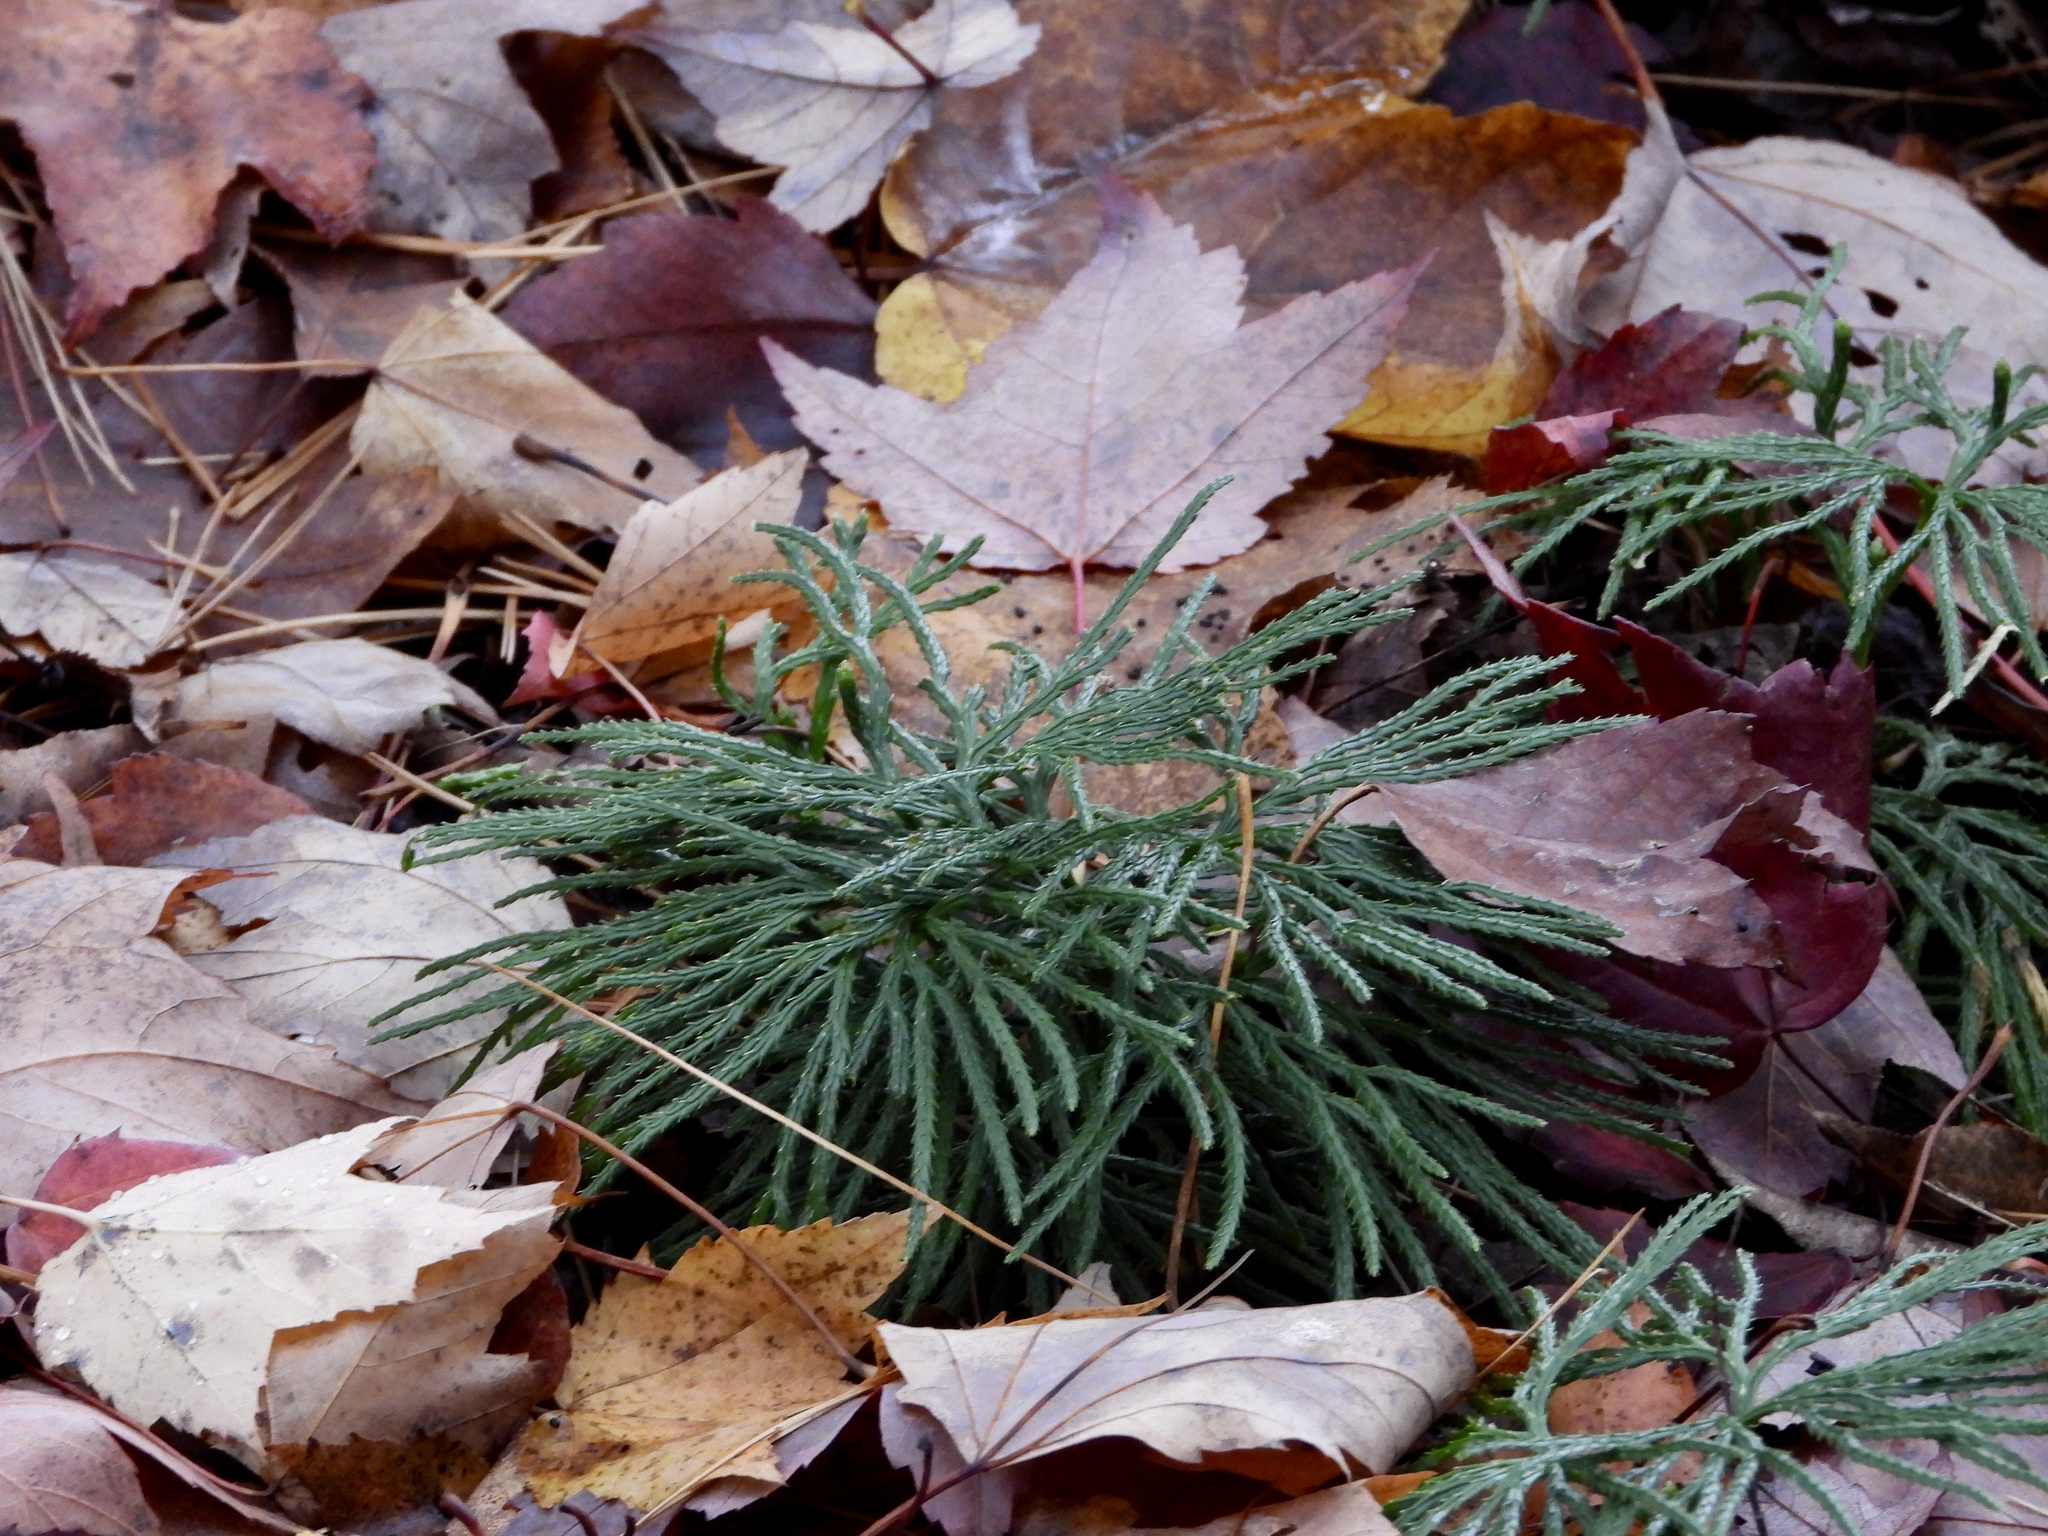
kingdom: Plantae
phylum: Tracheophyta
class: Lycopodiopsida
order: Lycopodiales
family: Lycopodiaceae
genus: Diphasiastrum
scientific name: Diphasiastrum digitatum
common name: Southern running-pine
